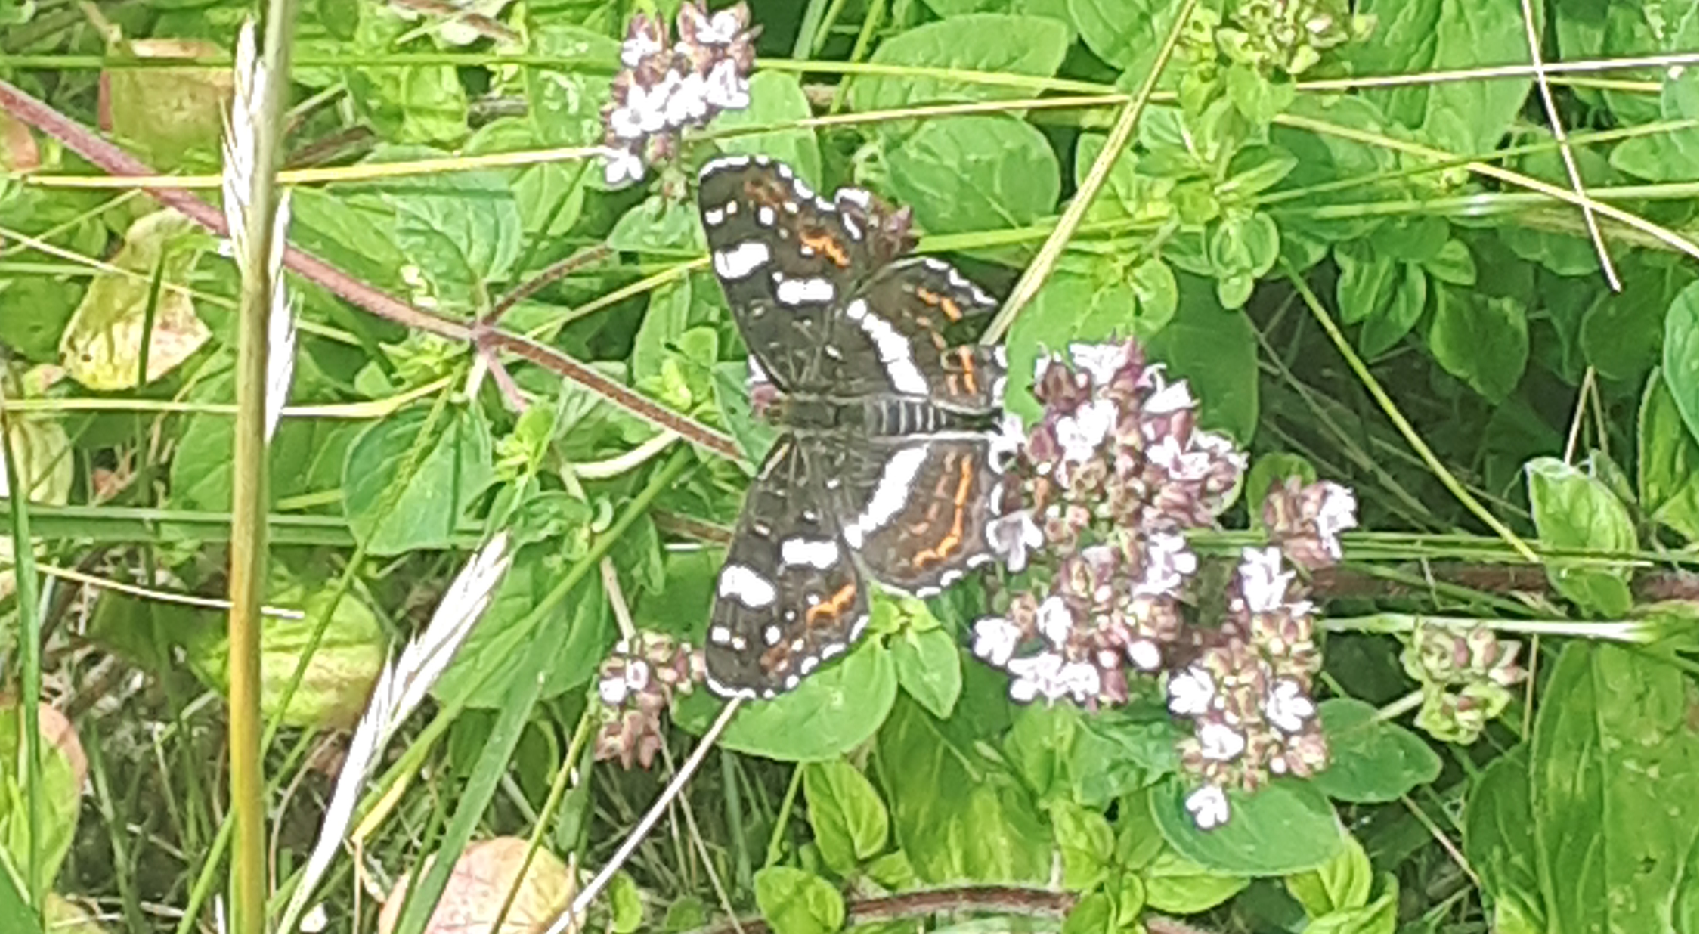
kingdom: Animalia
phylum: Arthropoda
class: Insecta
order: Lepidoptera
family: Nymphalidae
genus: Araschnia
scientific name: Araschnia levana
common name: Map butterfly
